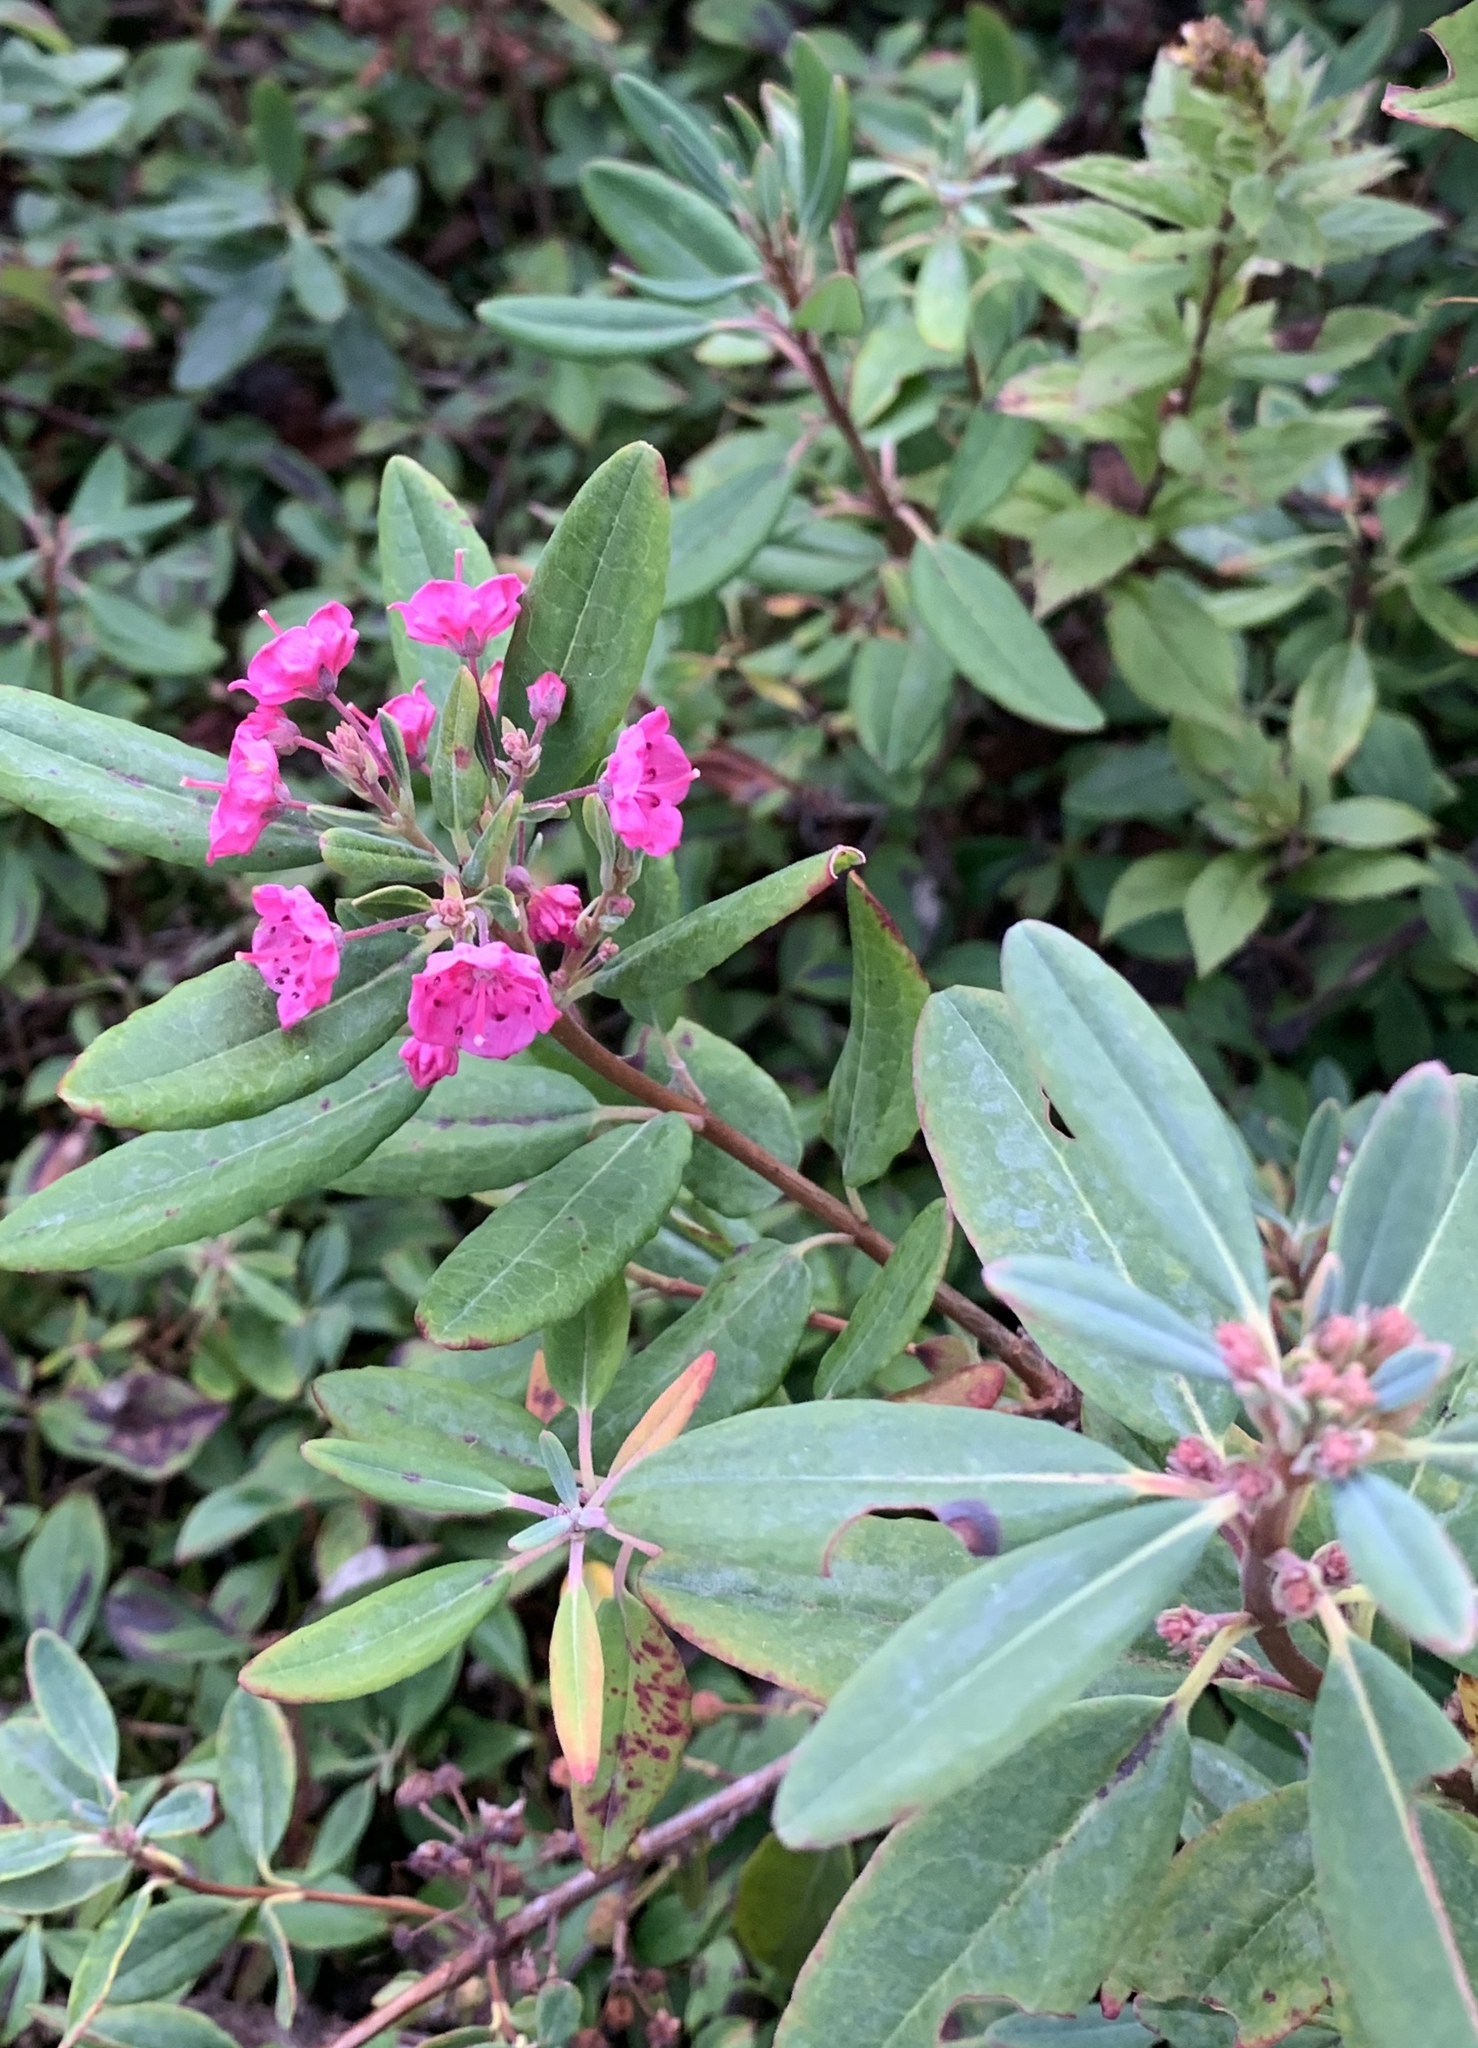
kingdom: Plantae
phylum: Tracheophyta
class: Magnoliopsida
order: Ericales
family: Ericaceae
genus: Kalmia
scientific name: Kalmia angustifolia
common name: Sheep-laurel
